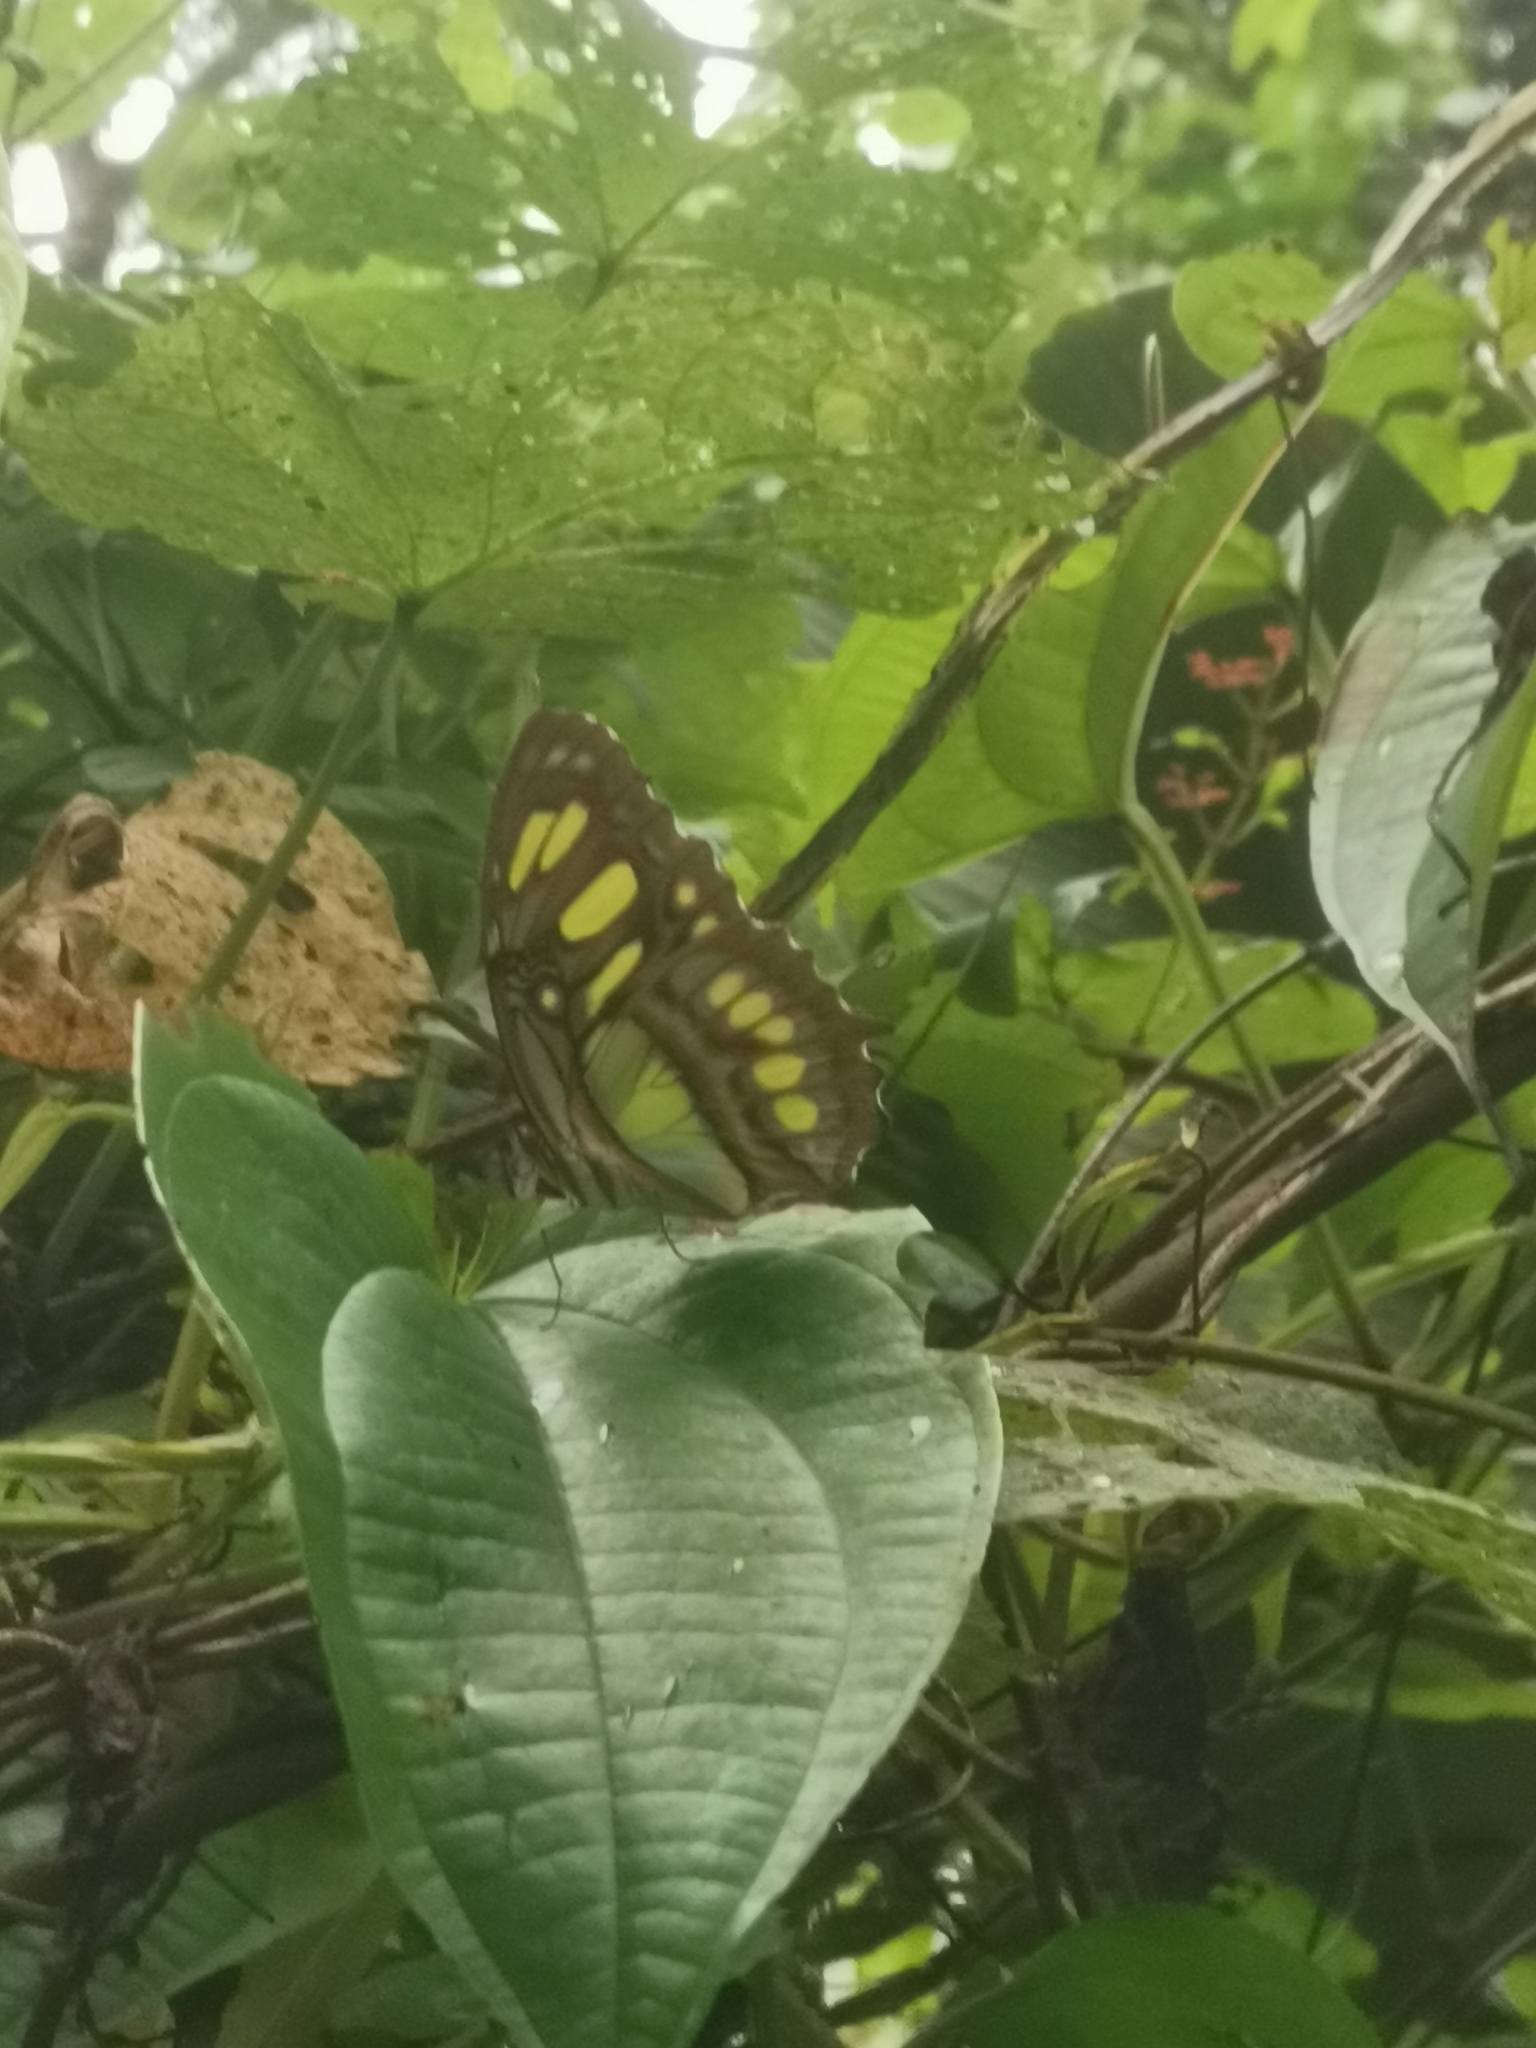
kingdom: Animalia
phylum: Arthropoda
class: Insecta
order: Lepidoptera
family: Nymphalidae
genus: Siproeta
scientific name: Siproeta stelenes
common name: Malachite
